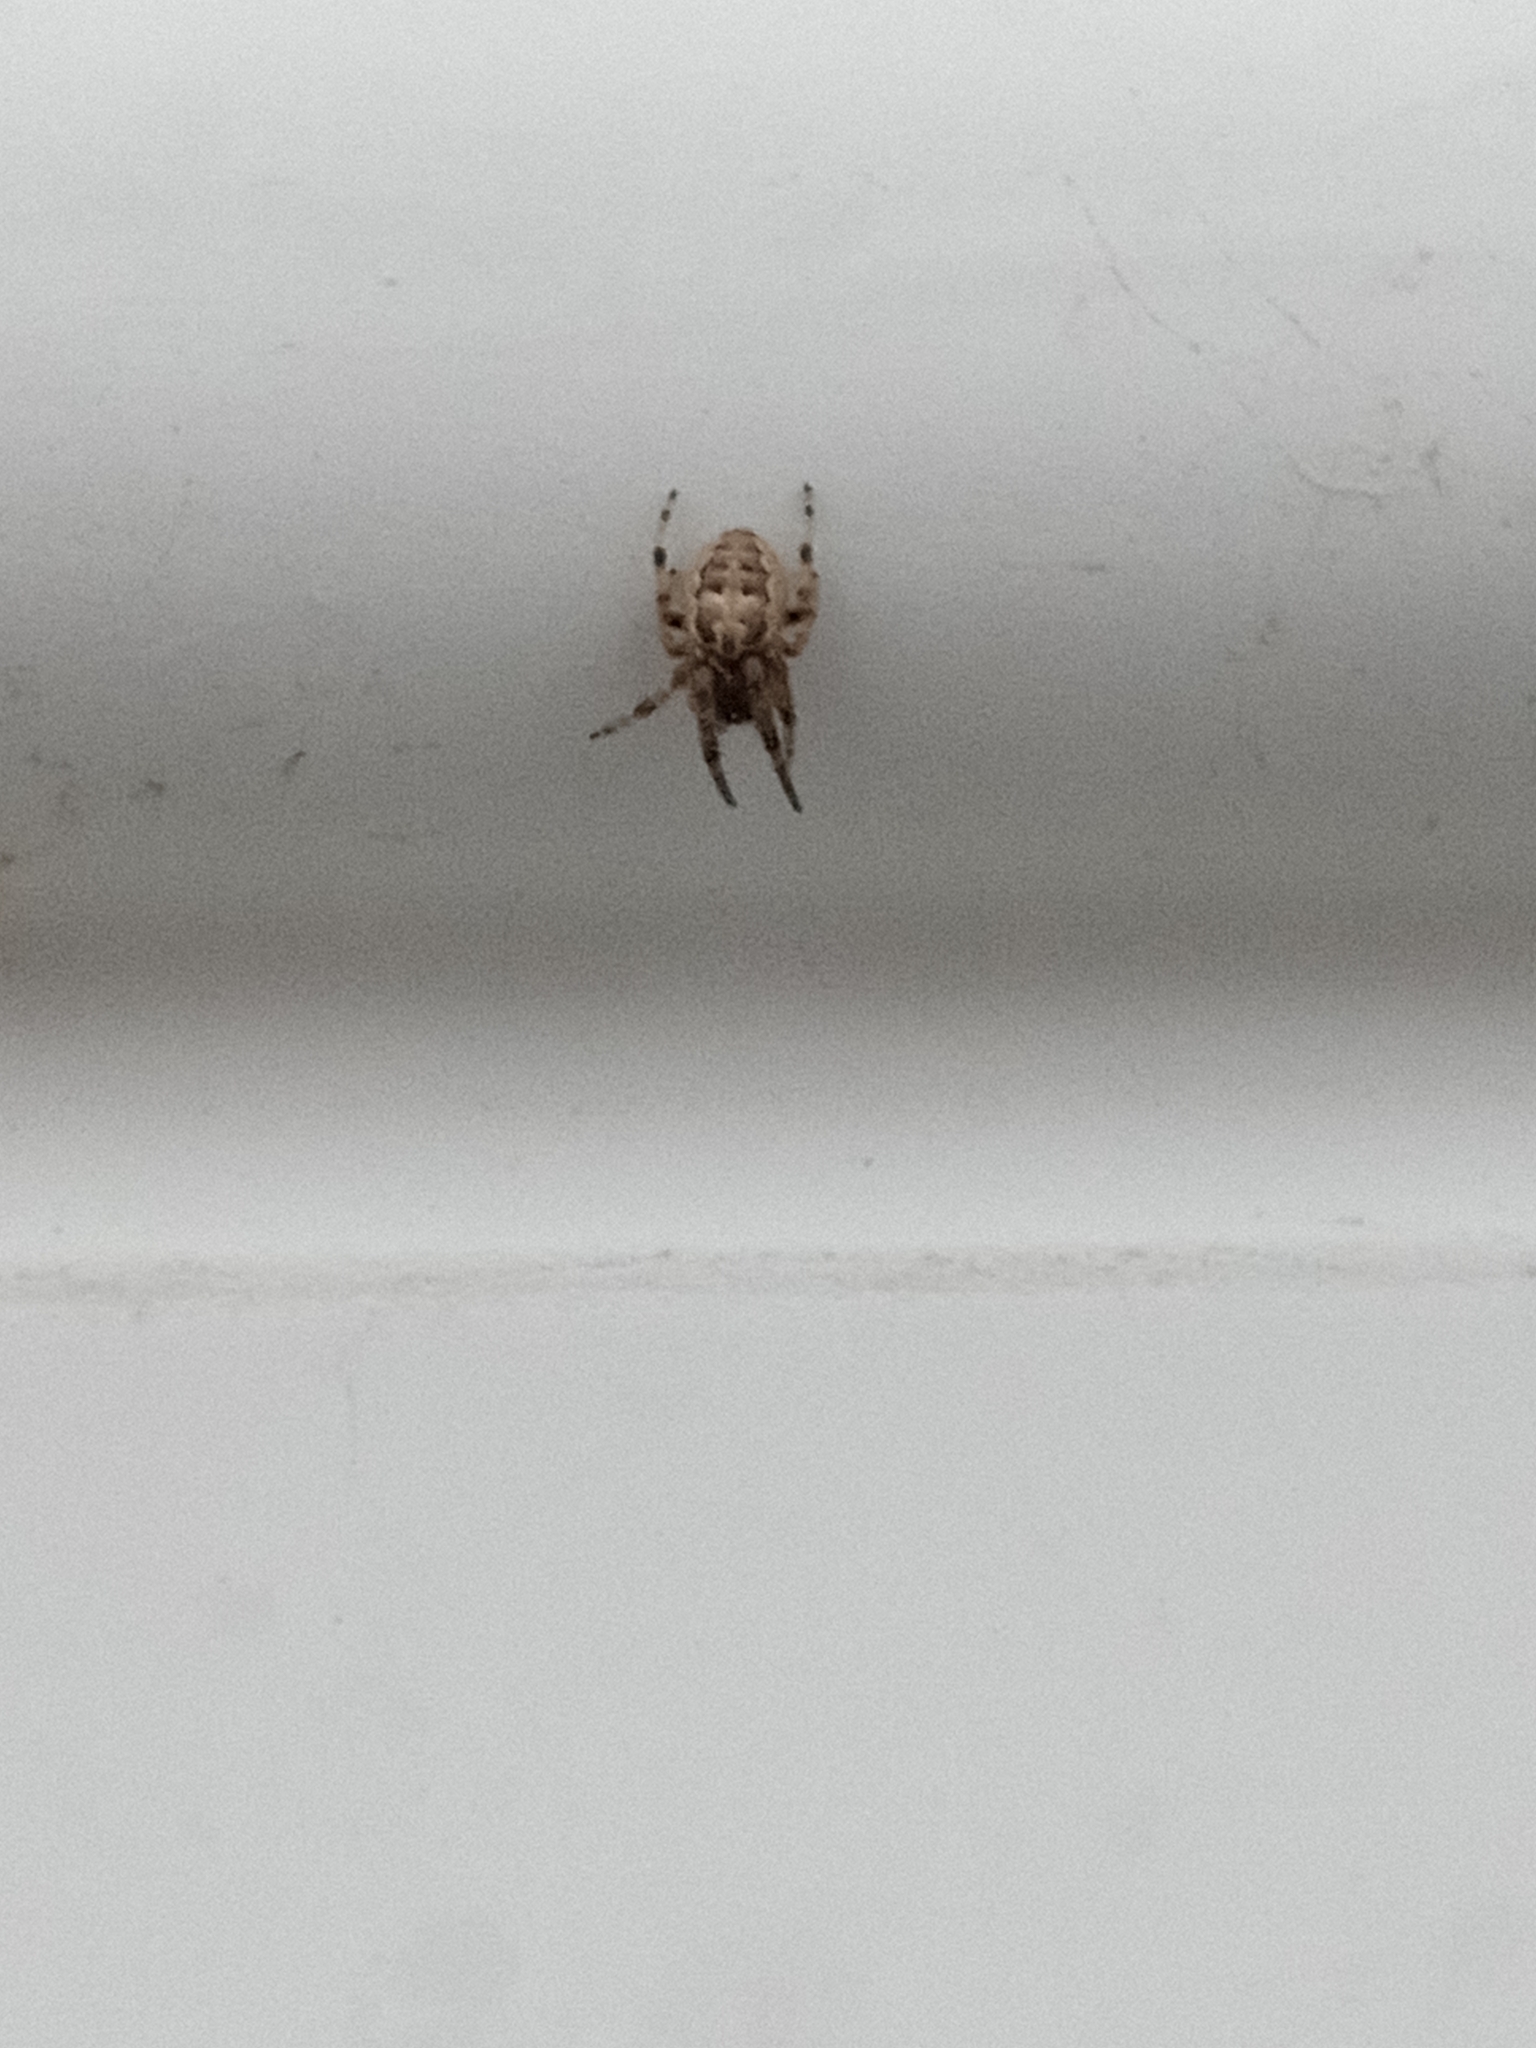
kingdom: Animalia
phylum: Arthropoda
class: Arachnida
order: Araneae
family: Araneidae
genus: Larinioides
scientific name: Larinioides cornutus
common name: Furrow orbweaver
